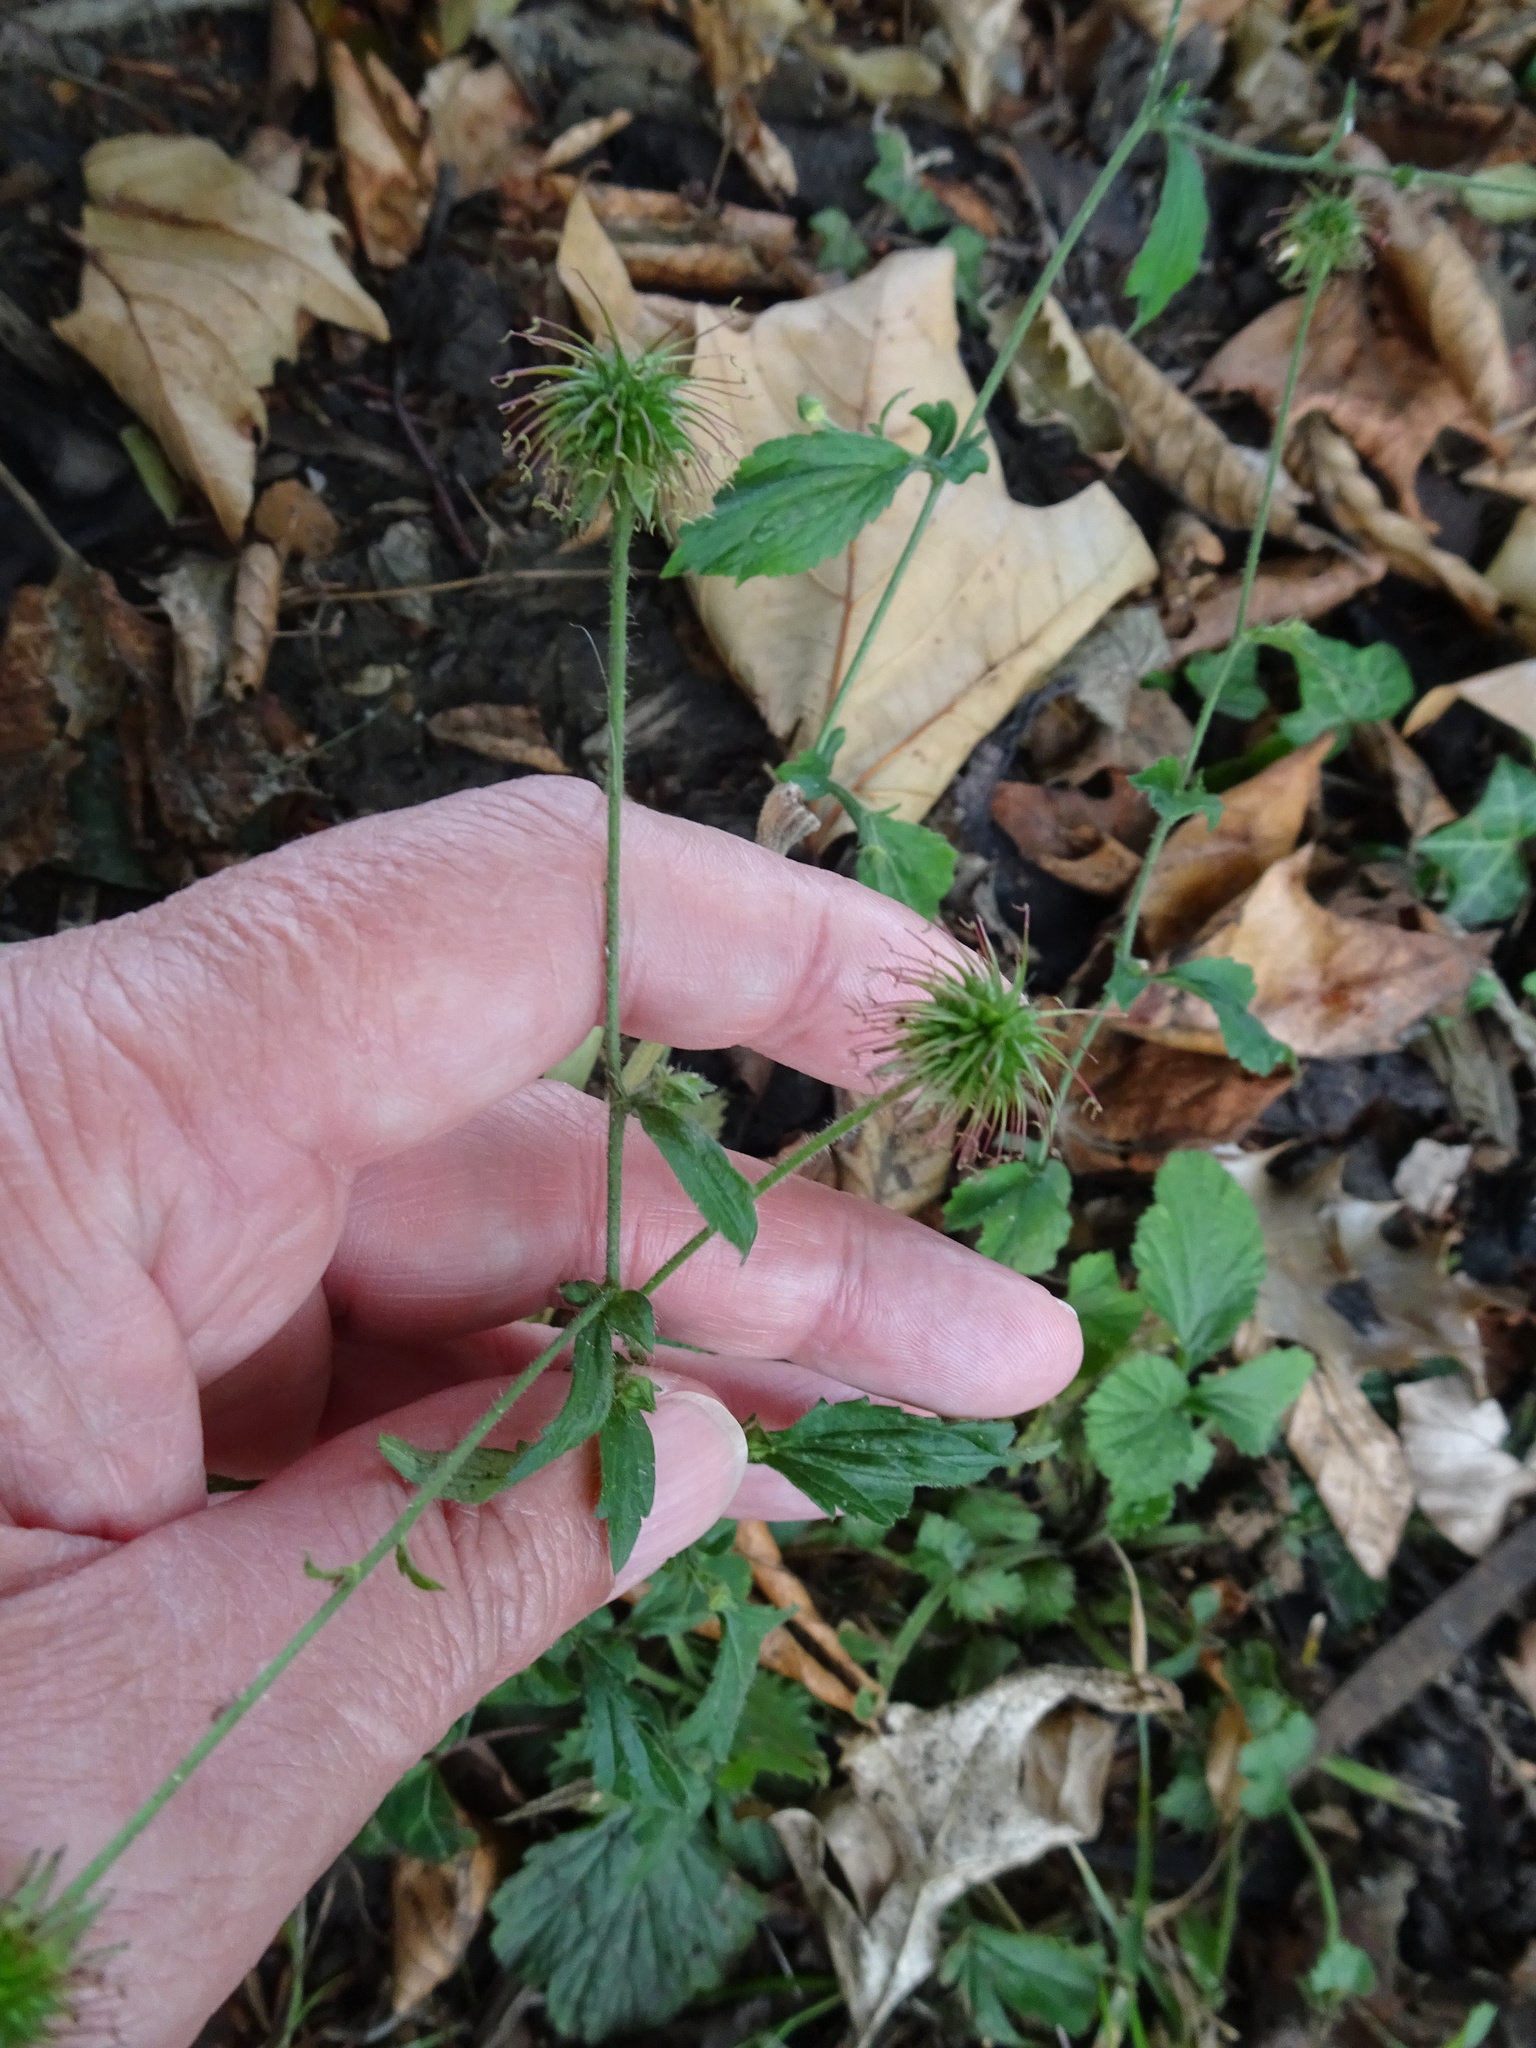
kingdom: Plantae
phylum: Tracheophyta
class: Magnoliopsida
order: Rosales
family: Rosaceae
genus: Geum
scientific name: Geum urbanum
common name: Wood avens
